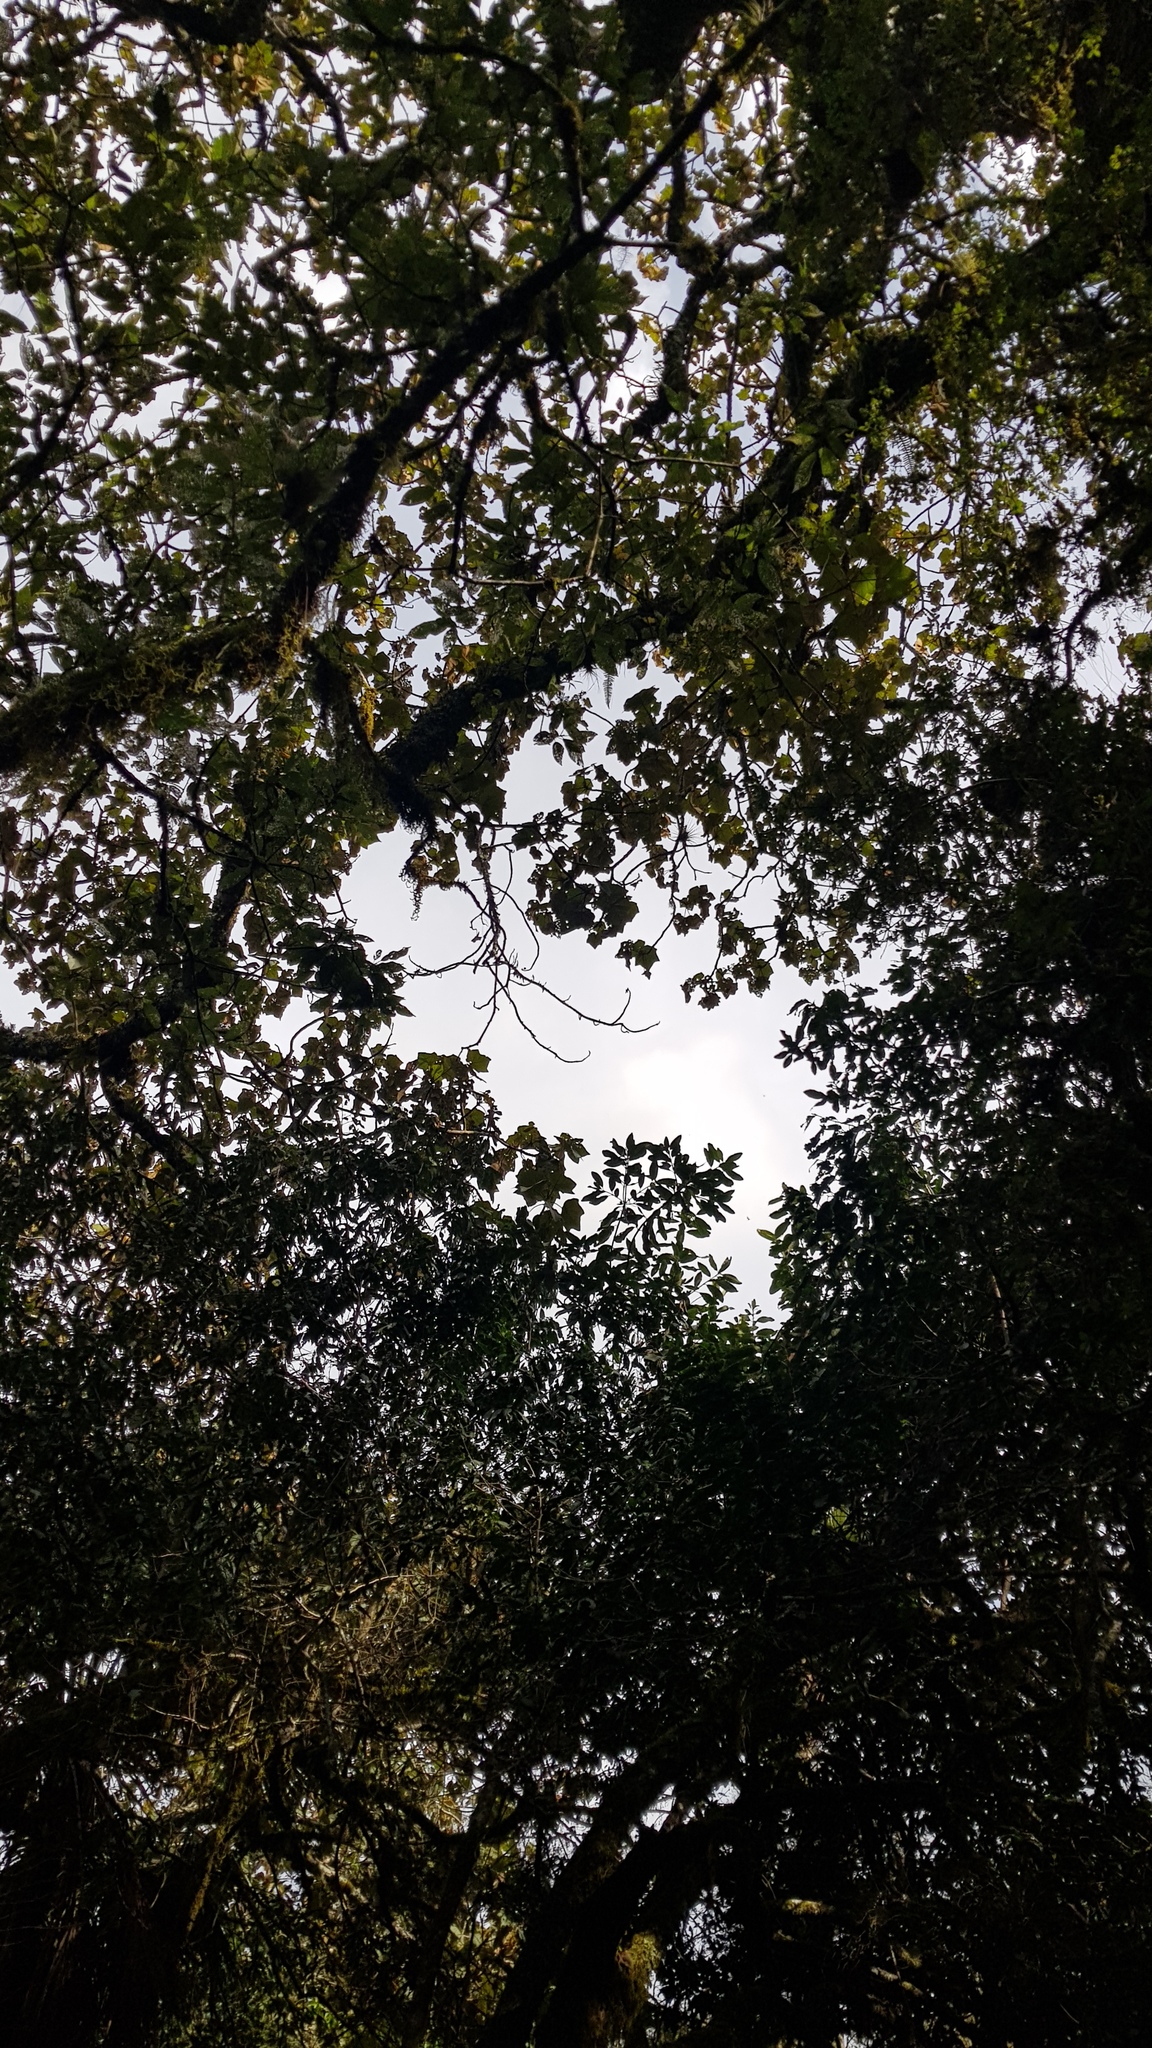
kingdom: Plantae
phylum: Tracheophyta
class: Magnoliopsida
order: Malvales
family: Malvaceae
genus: Chiranthodendron
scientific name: Chiranthodendron pentadactylon
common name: Mexican-hat-plant
